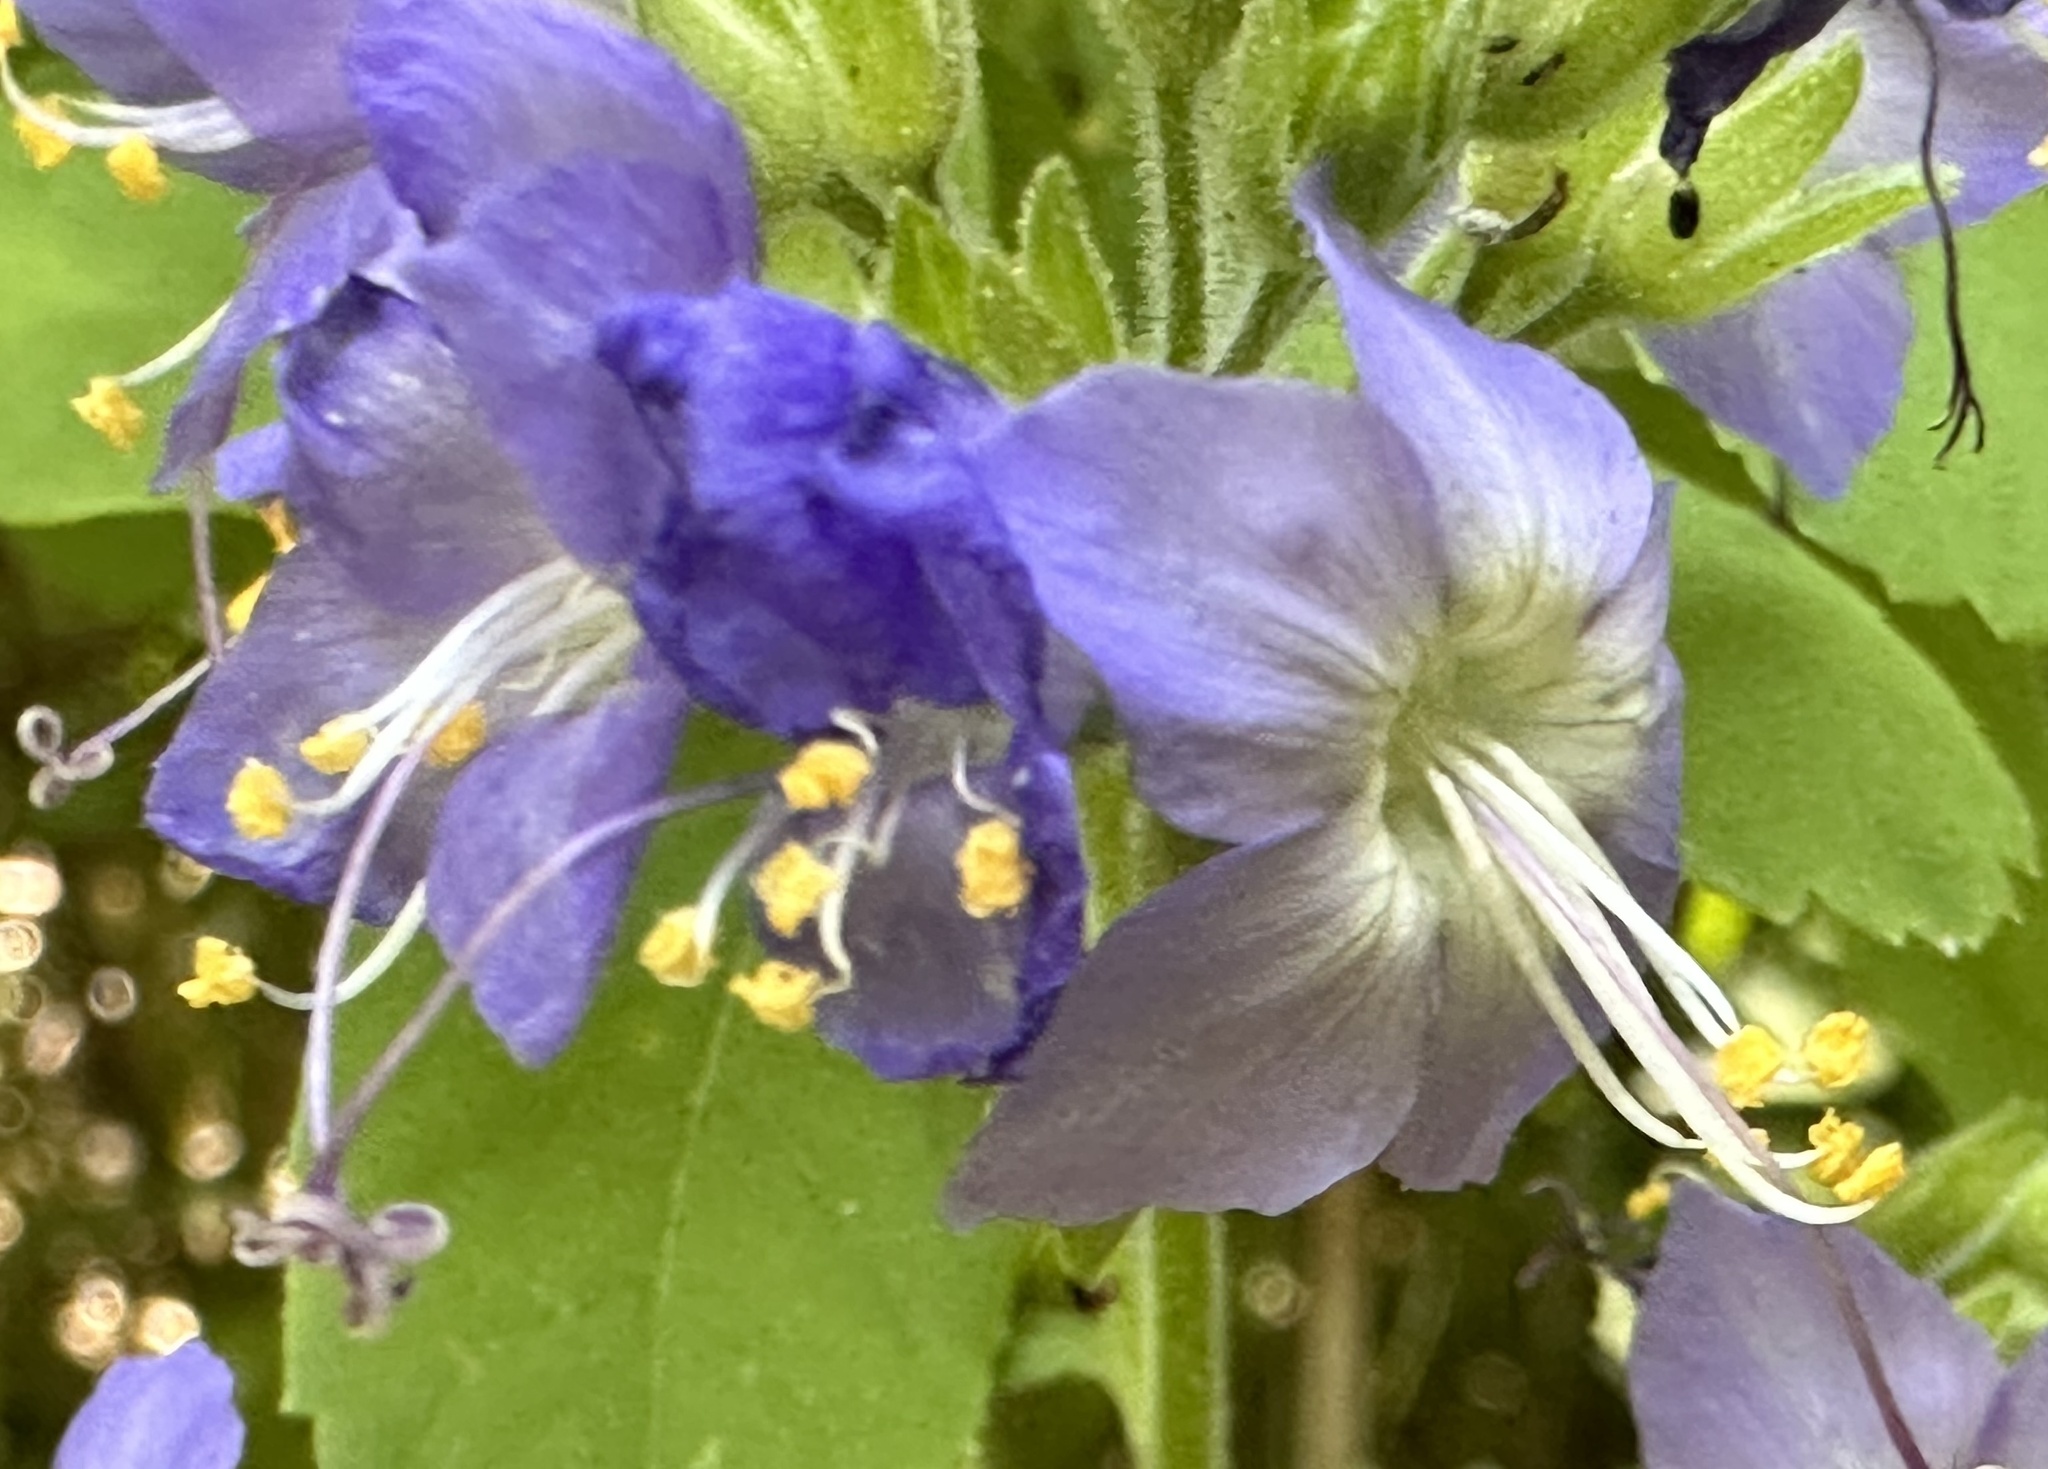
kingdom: Plantae
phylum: Tracheophyta
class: Magnoliopsida
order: Ericales
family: Polemoniaceae
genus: Polemonium
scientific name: Polemonium occidentale
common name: Western jacob's-ladder
